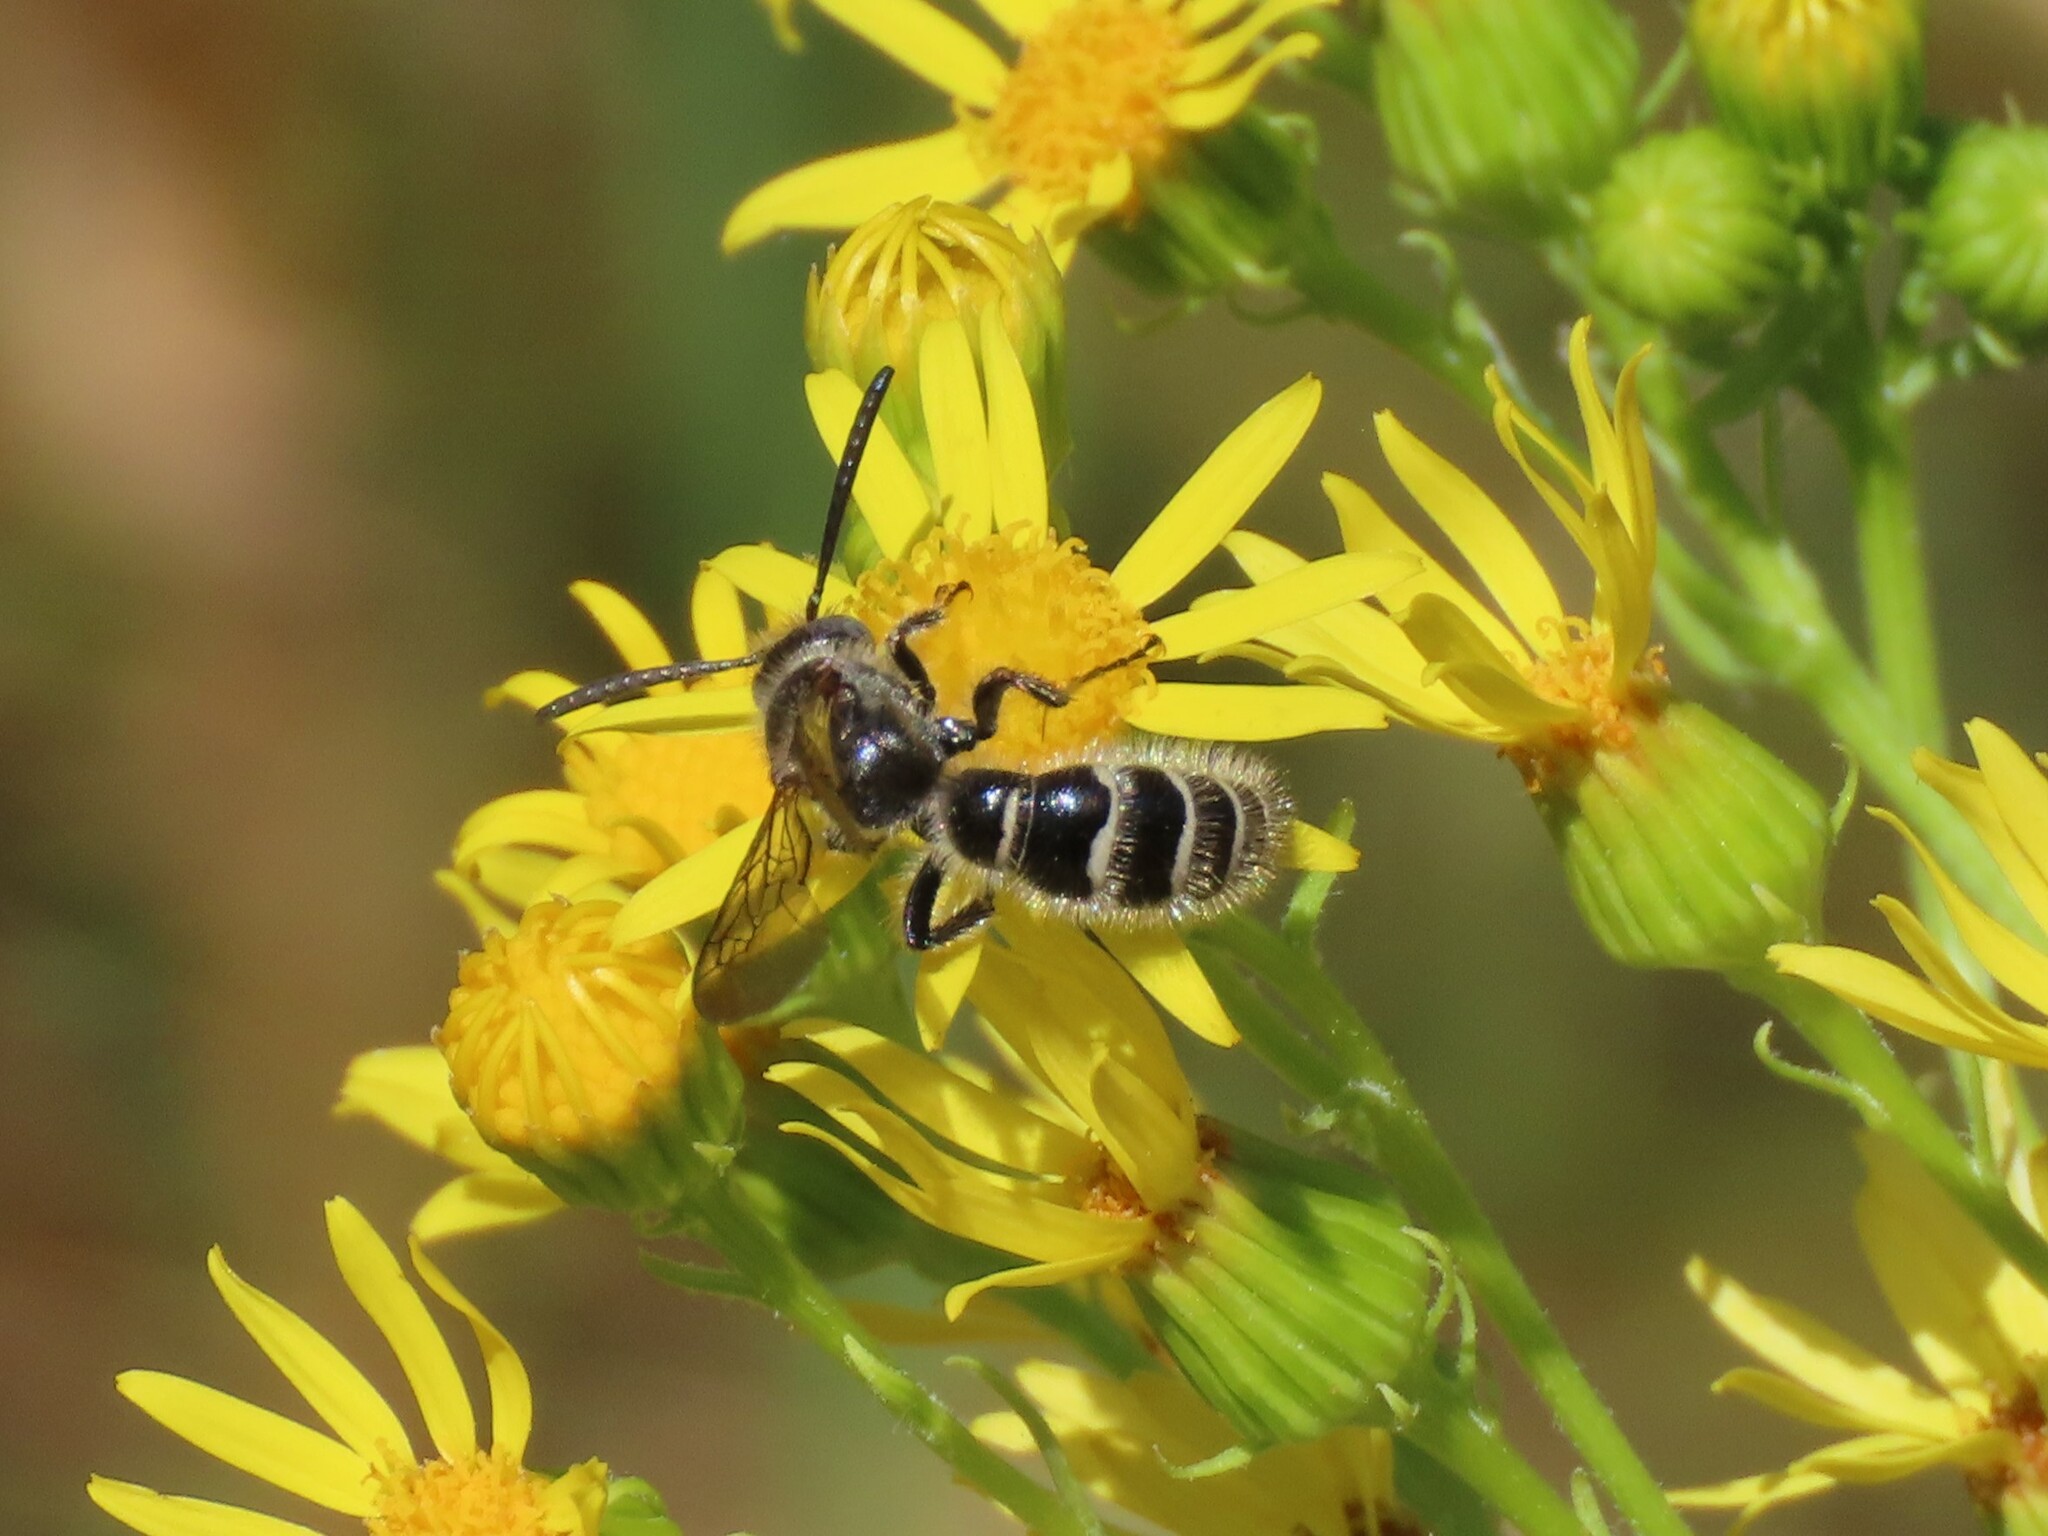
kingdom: Animalia
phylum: Arthropoda
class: Insecta
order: Hymenoptera
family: Scoliidae
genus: Colpa
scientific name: Colpa quinquecincta
